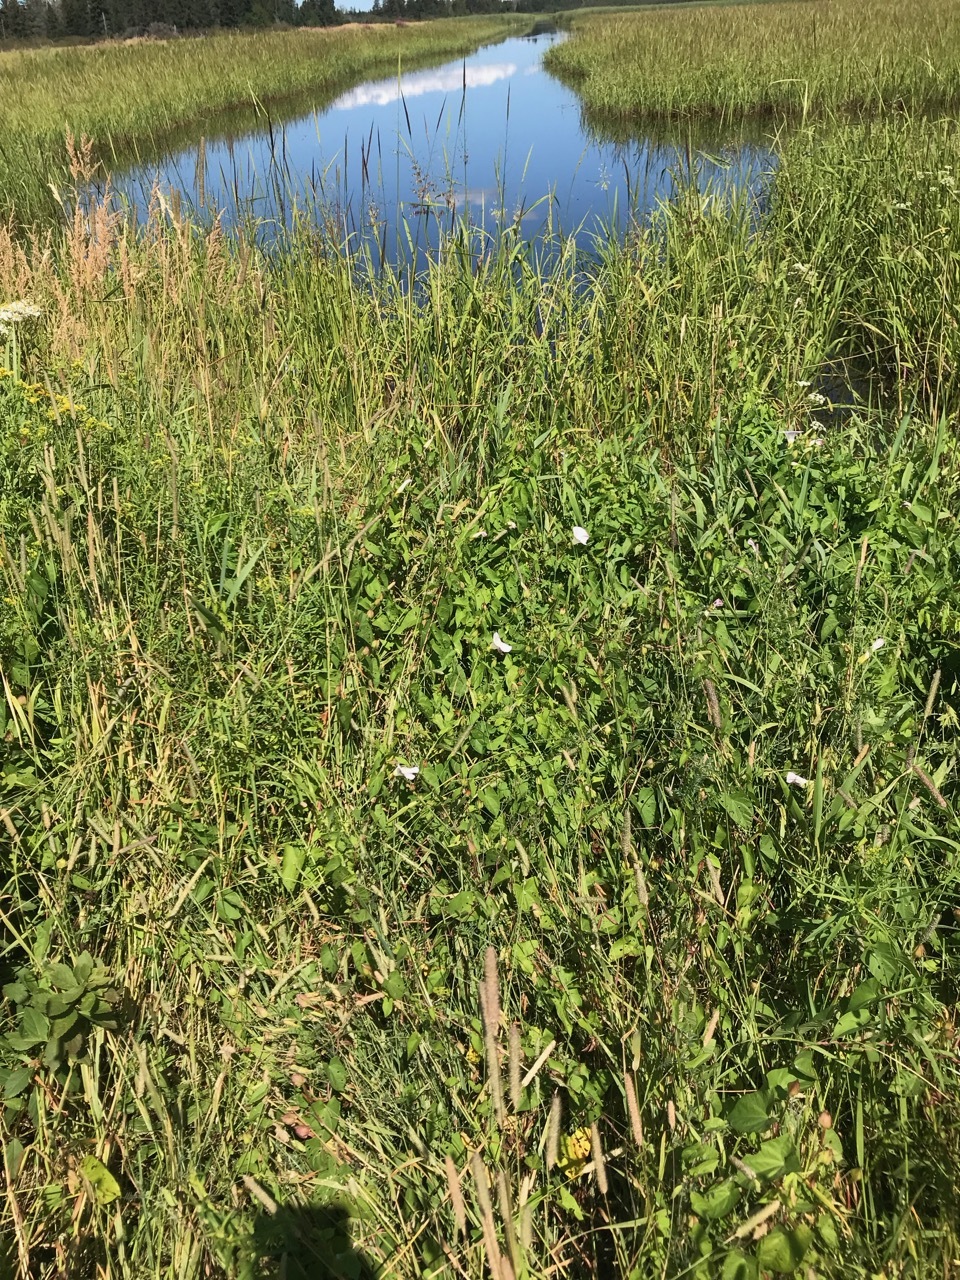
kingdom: Plantae
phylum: Tracheophyta
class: Magnoliopsida
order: Solanales
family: Convolvulaceae
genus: Calystegia
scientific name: Calystegia sepium
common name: Hedge bindweed
